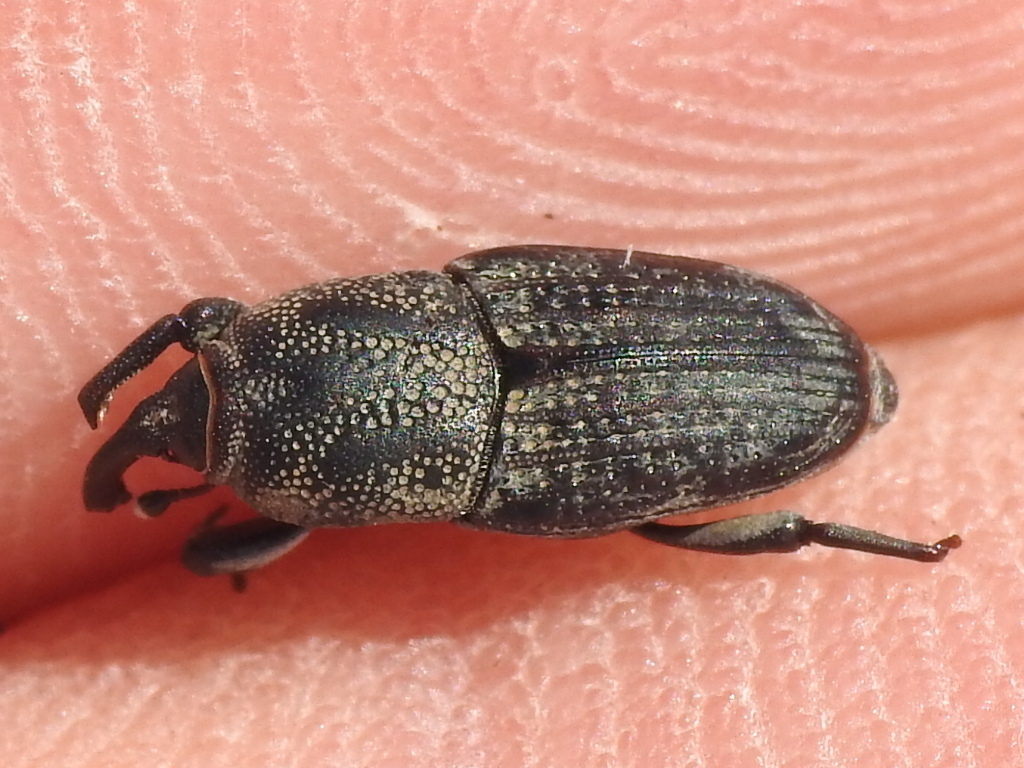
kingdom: Animalia
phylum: Arthropoda
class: Insecta
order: Coleoptera
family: Dryophthoridae
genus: Sphenophorus
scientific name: Sphenophorus venatus
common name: Hunting billbug
